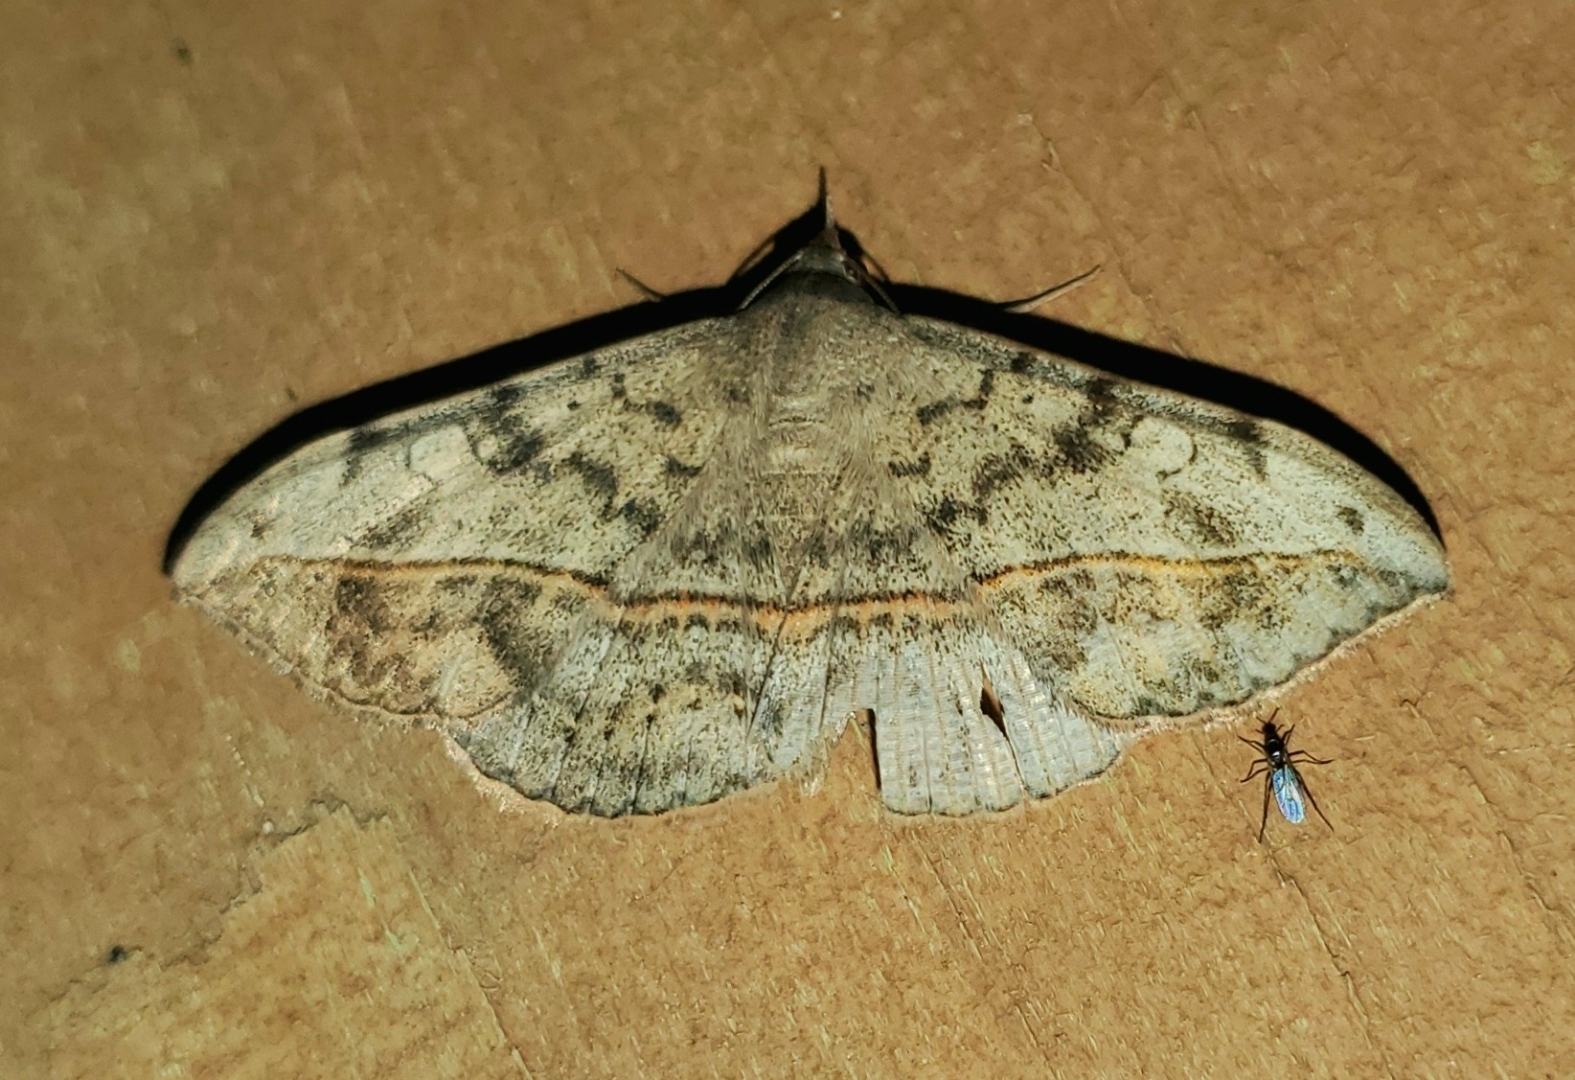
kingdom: Animalia
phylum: Arthropoda
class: Insecta
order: Lepidoptera
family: Erebidae
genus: Anticarsia
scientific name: Anticarsia gemmatalis
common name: Cutworm moth
